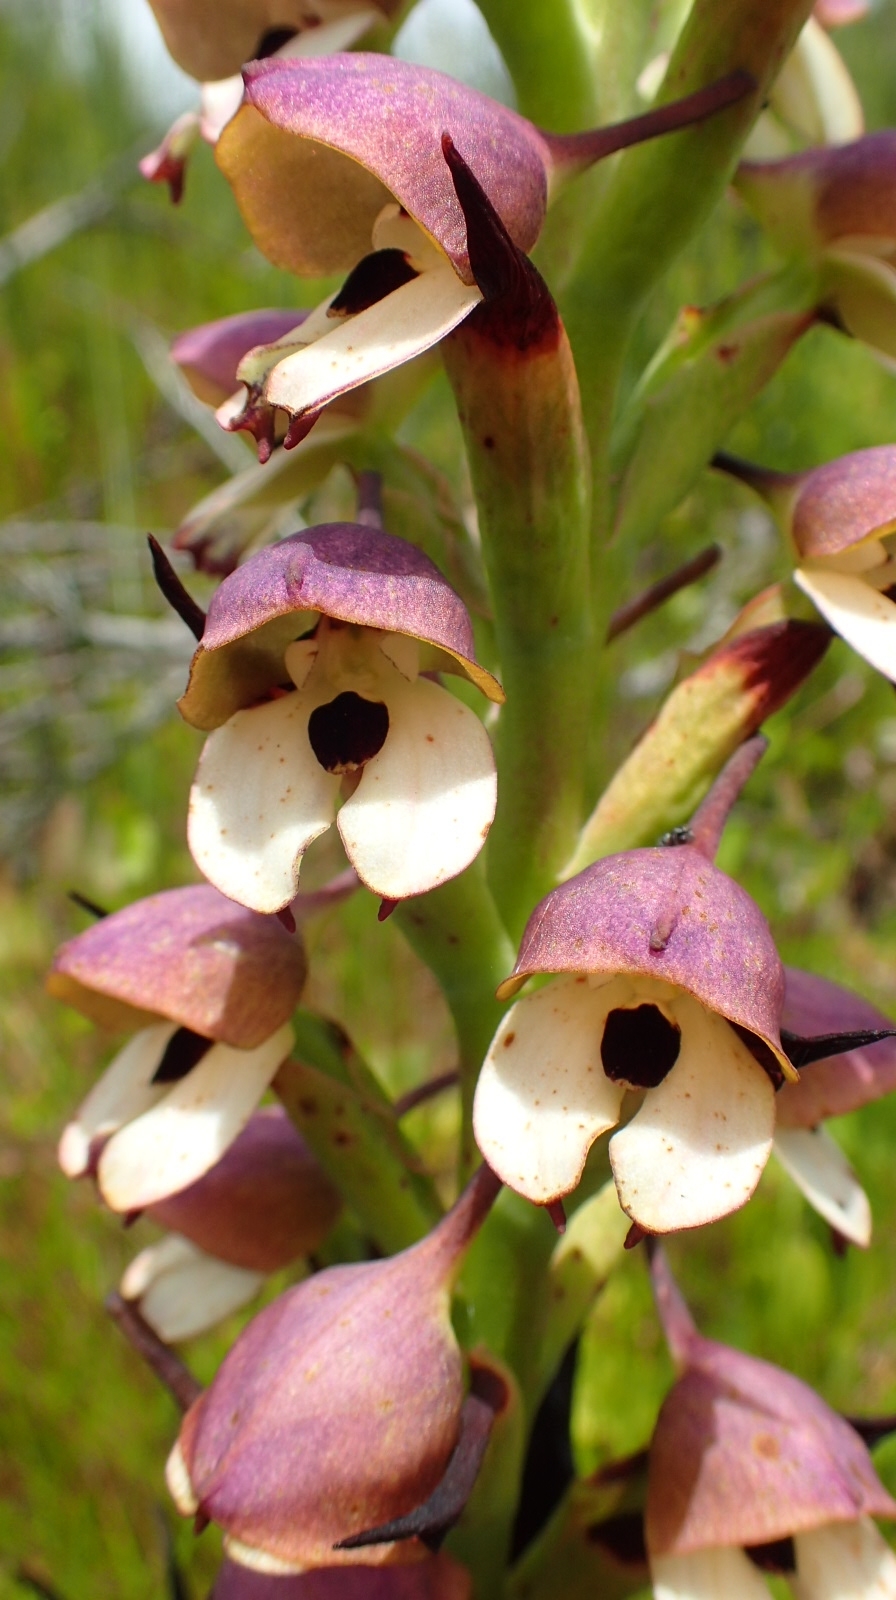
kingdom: Plantae
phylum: Tracheophyta
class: Liliopsida
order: Asparagales
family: Orchidaceae
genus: Disa
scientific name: Disa cornuta
